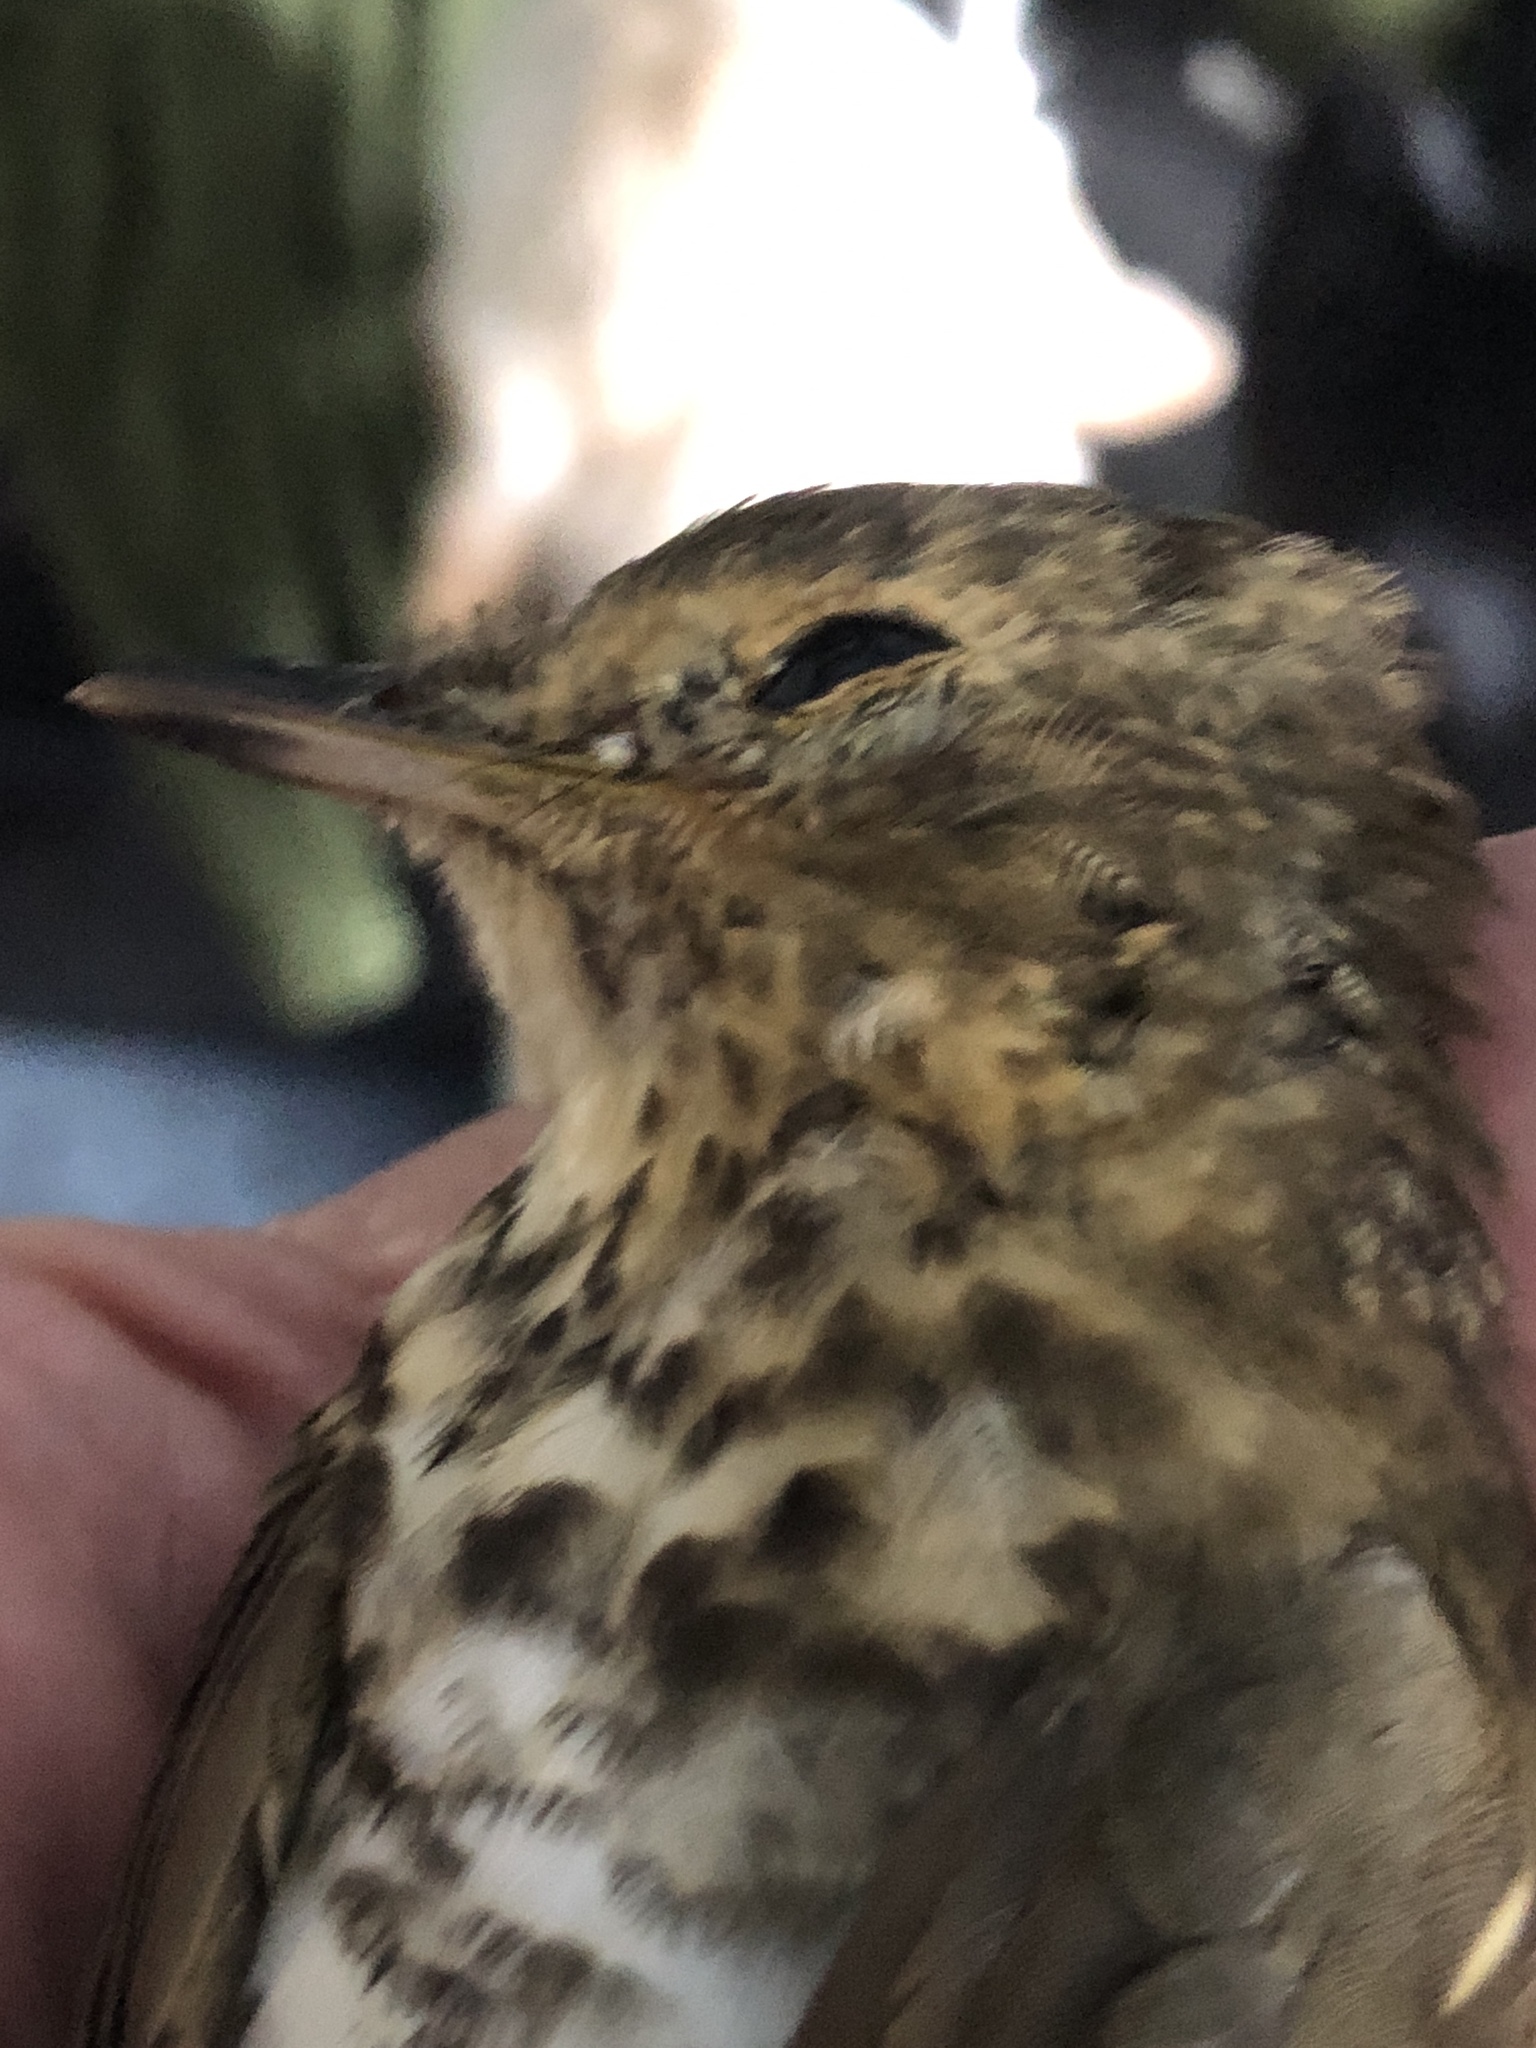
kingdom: Animalia
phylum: Chordata
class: Aves
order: Passeriformes
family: Turdidae
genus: Catharus
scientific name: Catharus ustulatus
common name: Swainson's thrush
